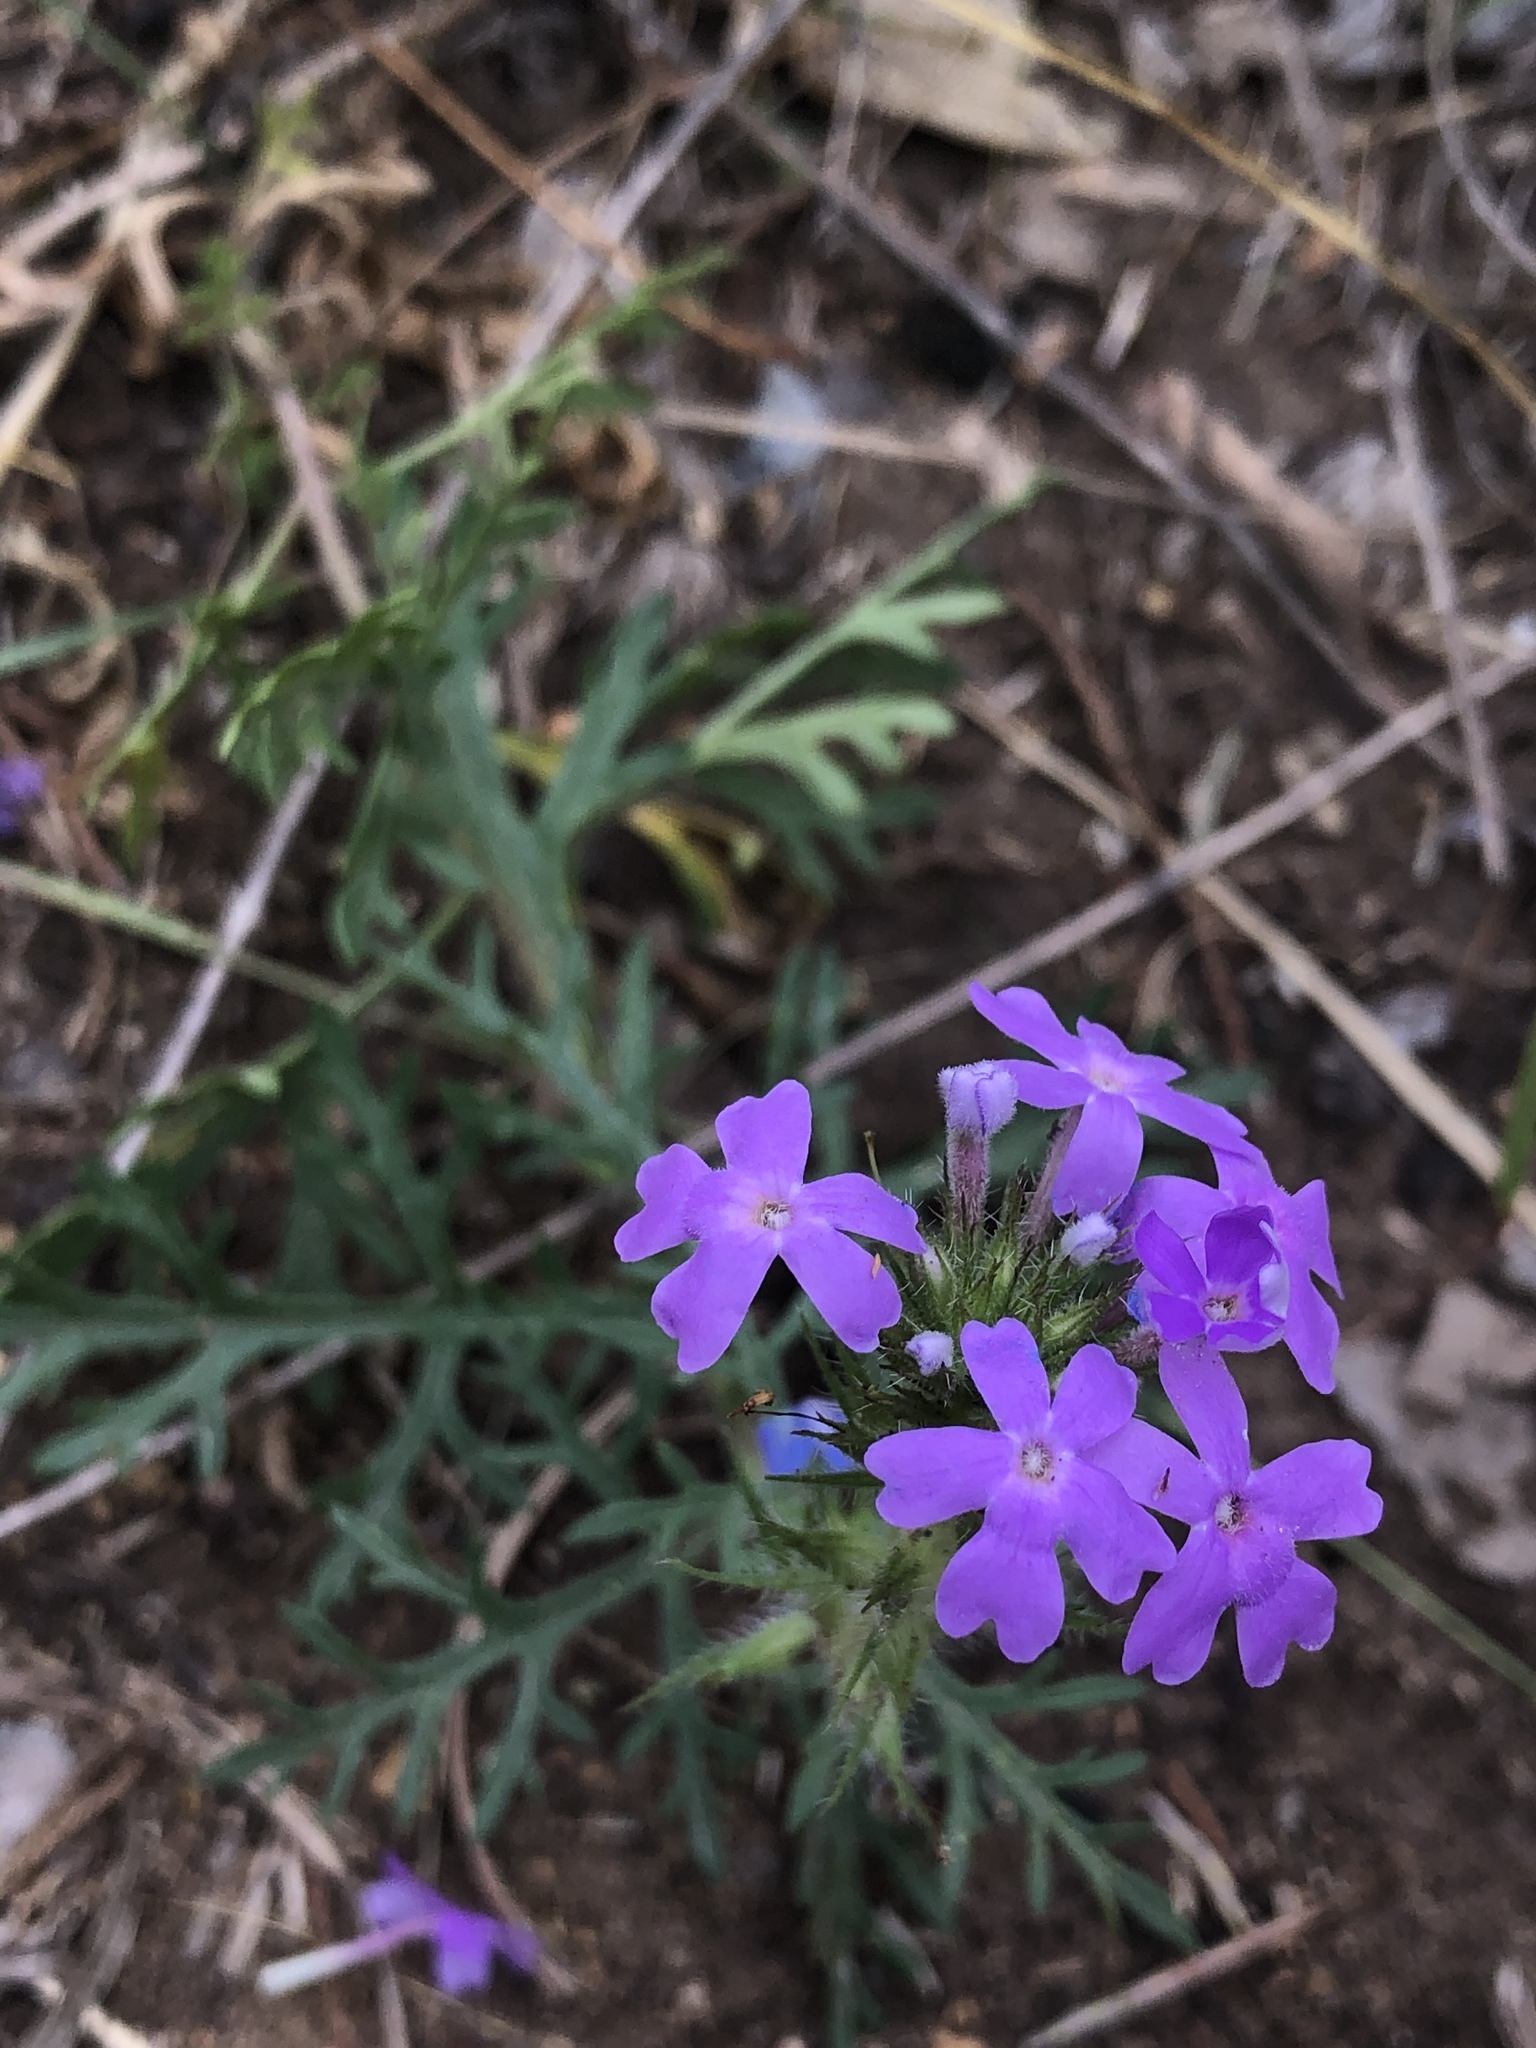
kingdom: Plantae
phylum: Tracheophyta
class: Magnoliopsida
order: Lamiales
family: Verbenaceae
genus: Verbena
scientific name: Verbena bipinnatifida
